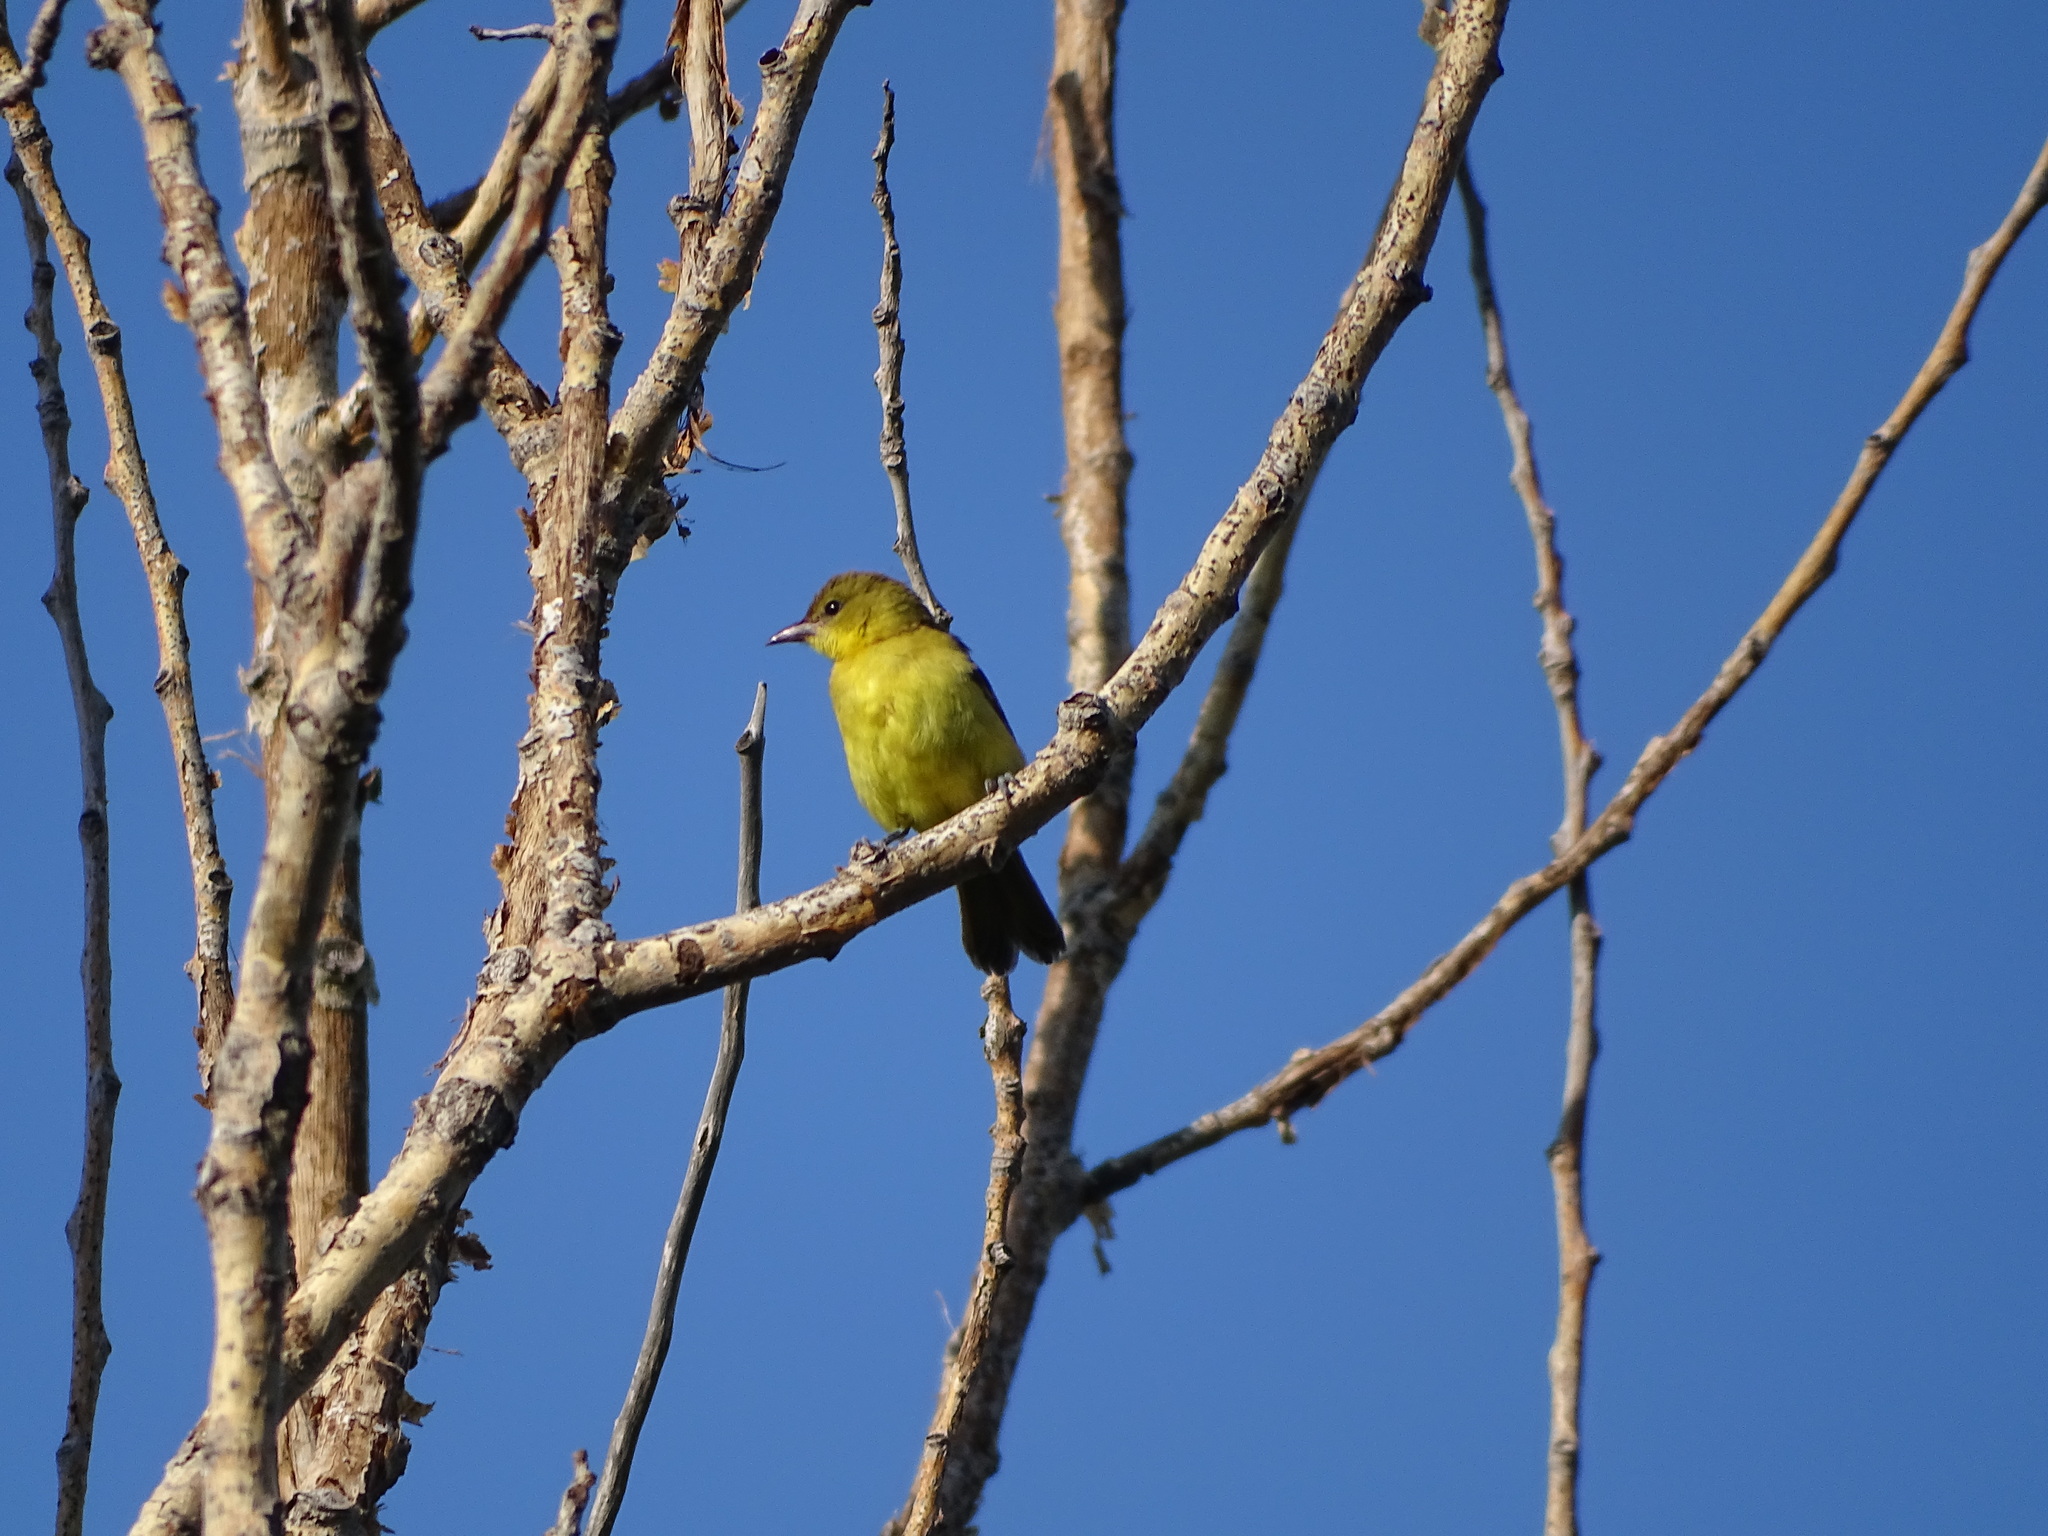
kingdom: Animalia
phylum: Chordata
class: Aves
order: Passeriformes
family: Icteridae
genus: Icterus
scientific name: Icterus spurius
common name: Orchard oriole
